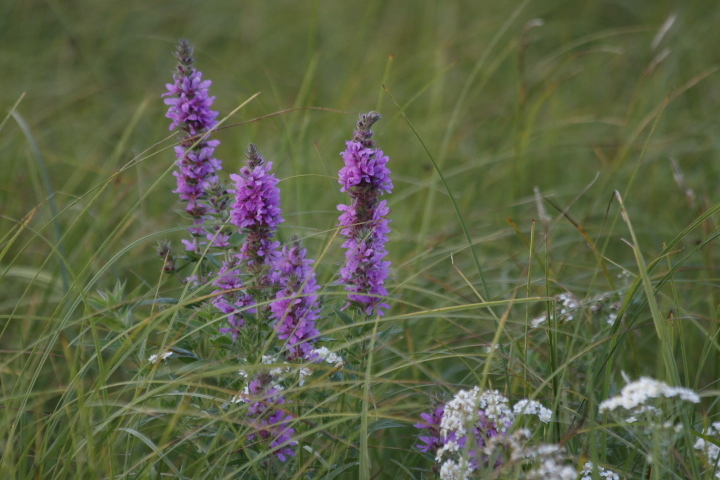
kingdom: Plantae
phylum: Tracheophyta
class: Magnoliopsida
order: Myrtales
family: Lythraceae
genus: Lythrum
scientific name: Lythrum salicaria
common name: Purple loosestrife
